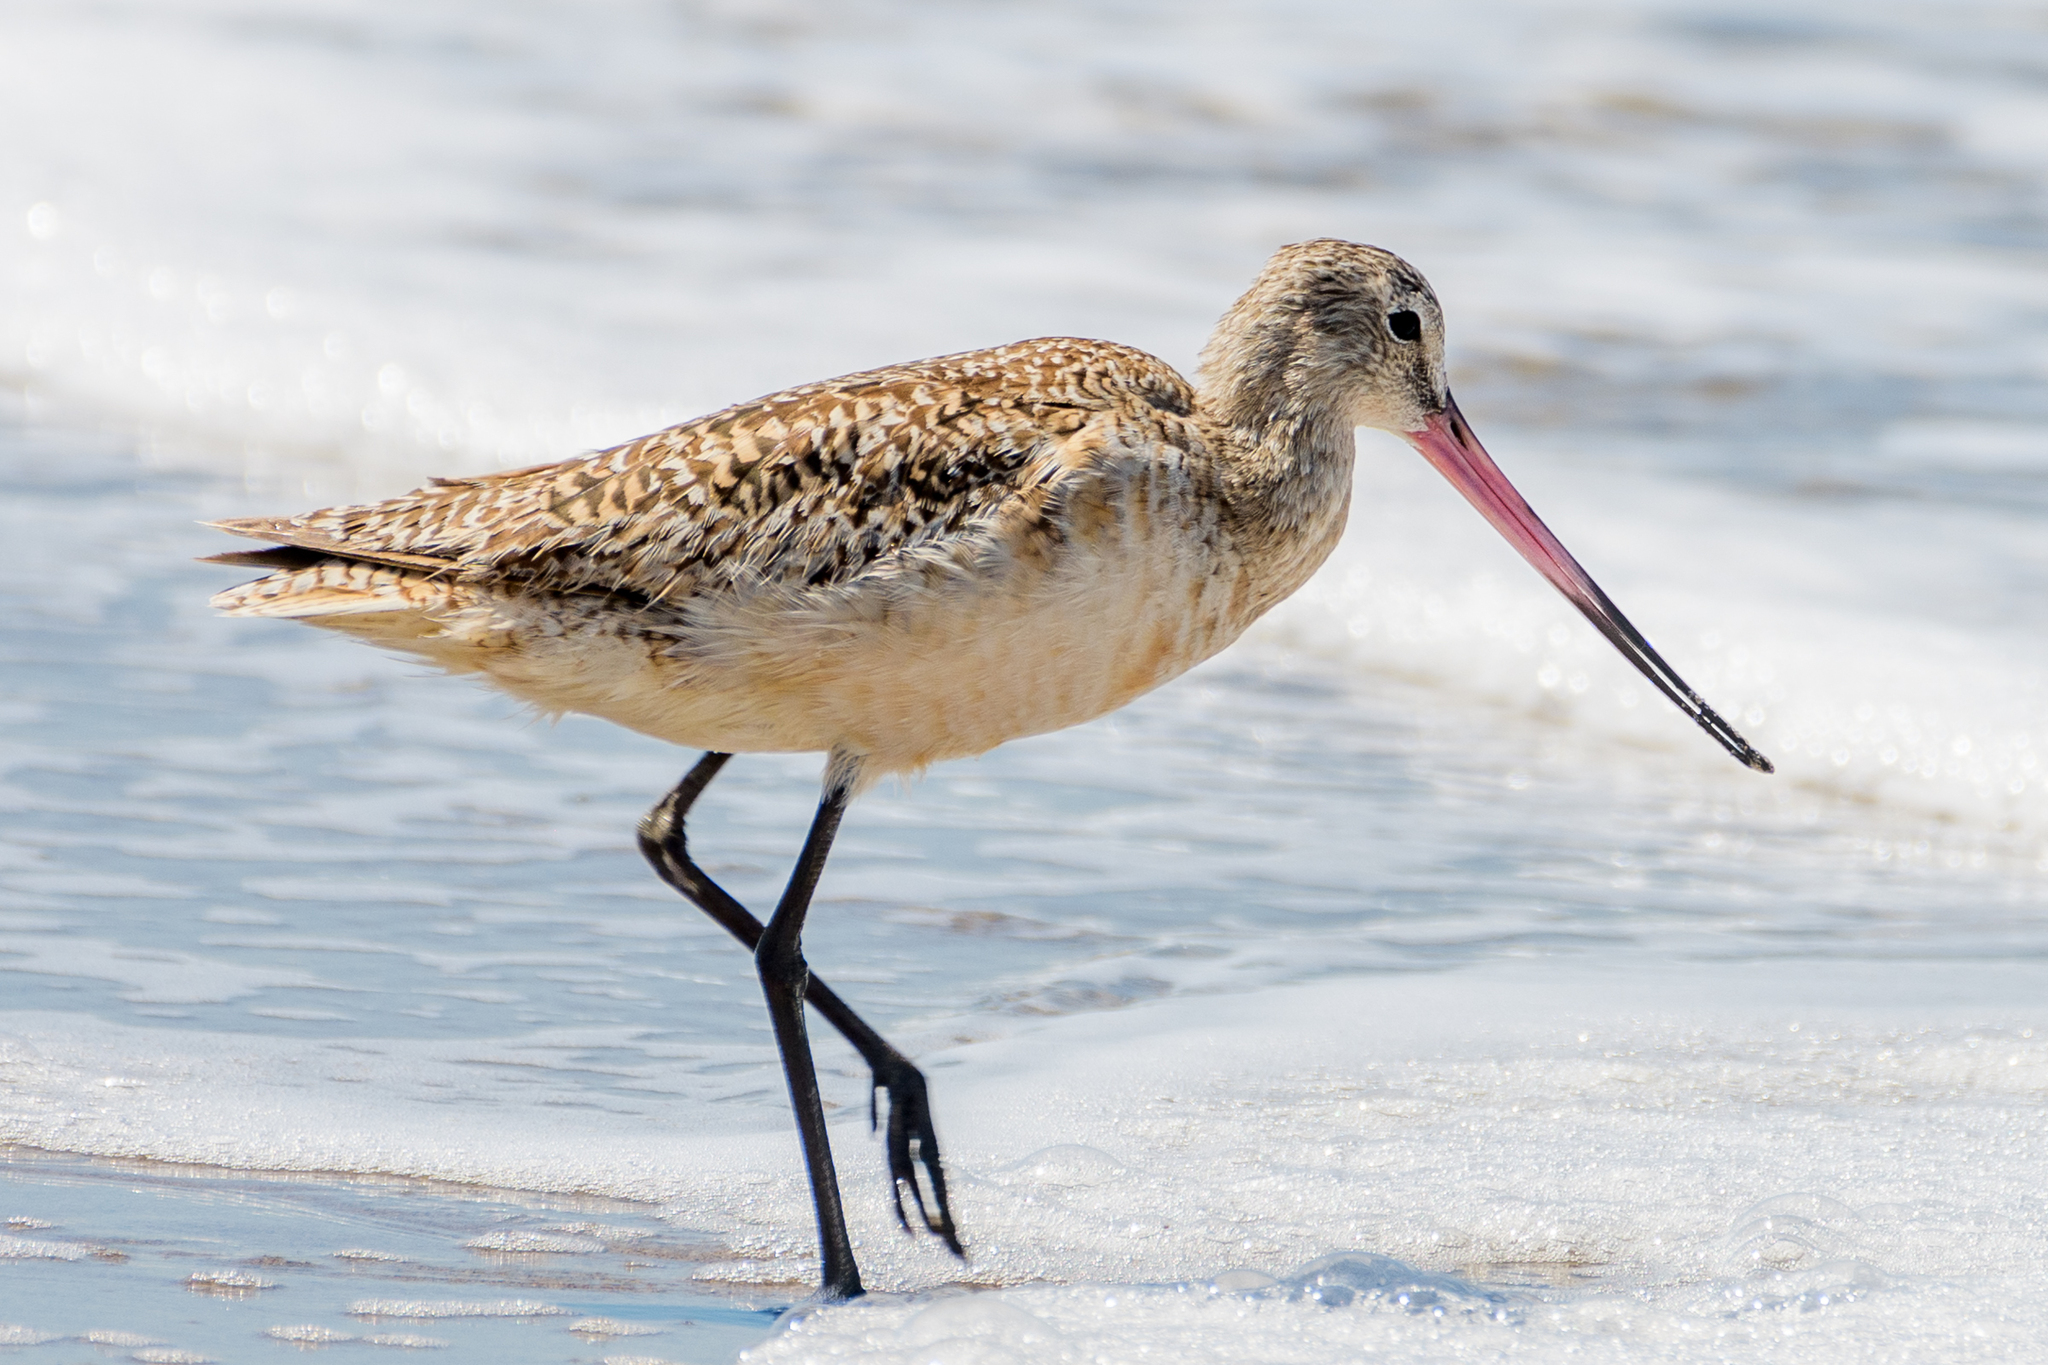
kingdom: Animalia
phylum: Chordata
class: Aves
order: Charadriiformes
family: Scolopacidae
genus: Limosa
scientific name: Limosa fedoa
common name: Marbled godwit
